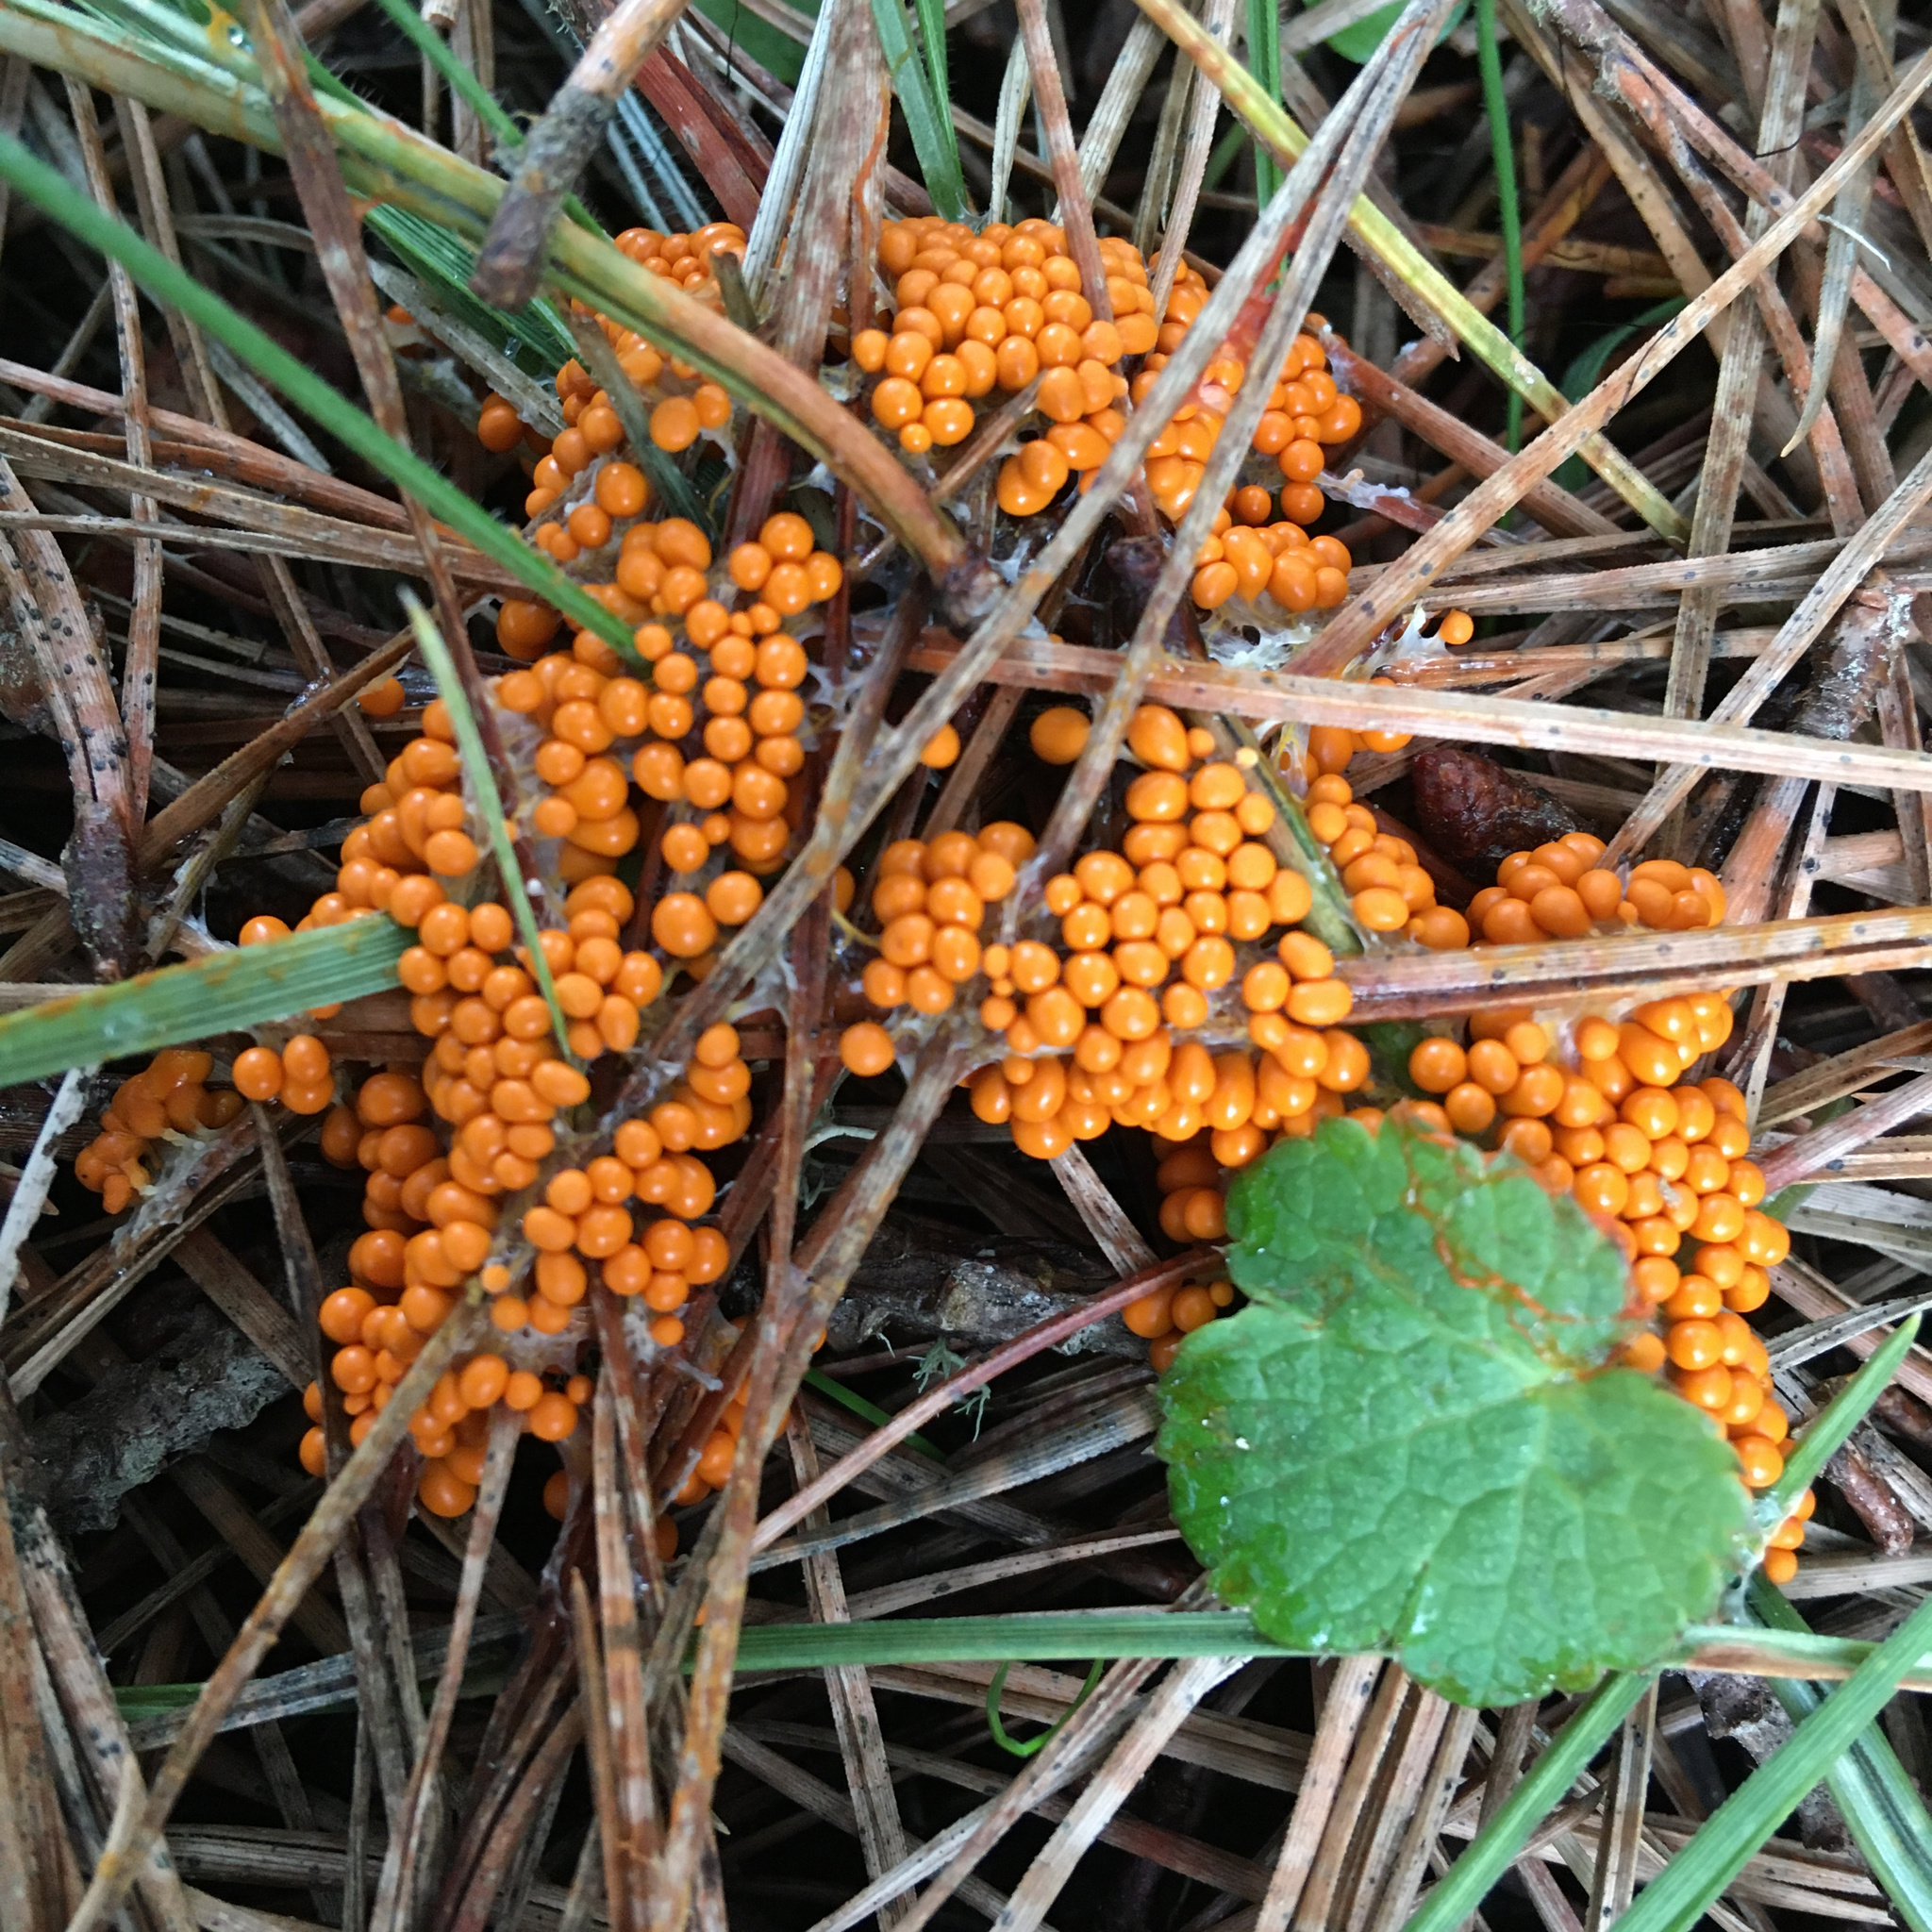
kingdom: Protozoa
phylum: Mycetozoa
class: Myxomycetes
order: Physarales
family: Physaraceae
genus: Leocarpus
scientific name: Leocarpus fragilis
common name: Insect-egg slime
